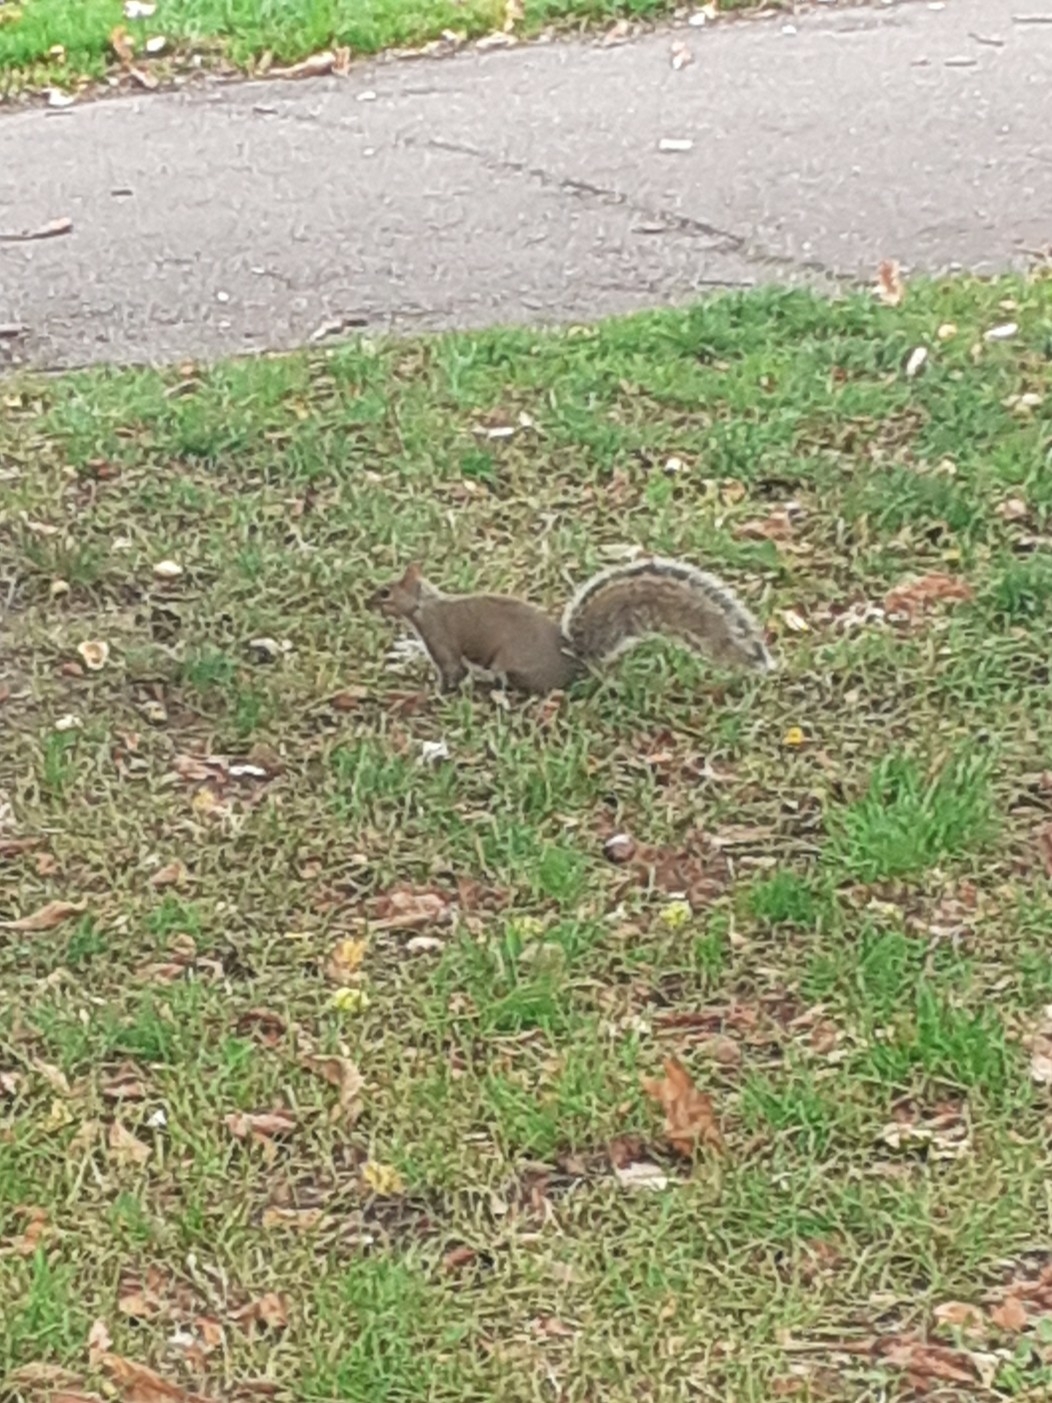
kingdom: Animalia
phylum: Chordata
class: Mammalia
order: Rodentia
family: Sciuridae
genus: Sciurus
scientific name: Sciurus carolinensis
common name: Eastern gray squirrel
